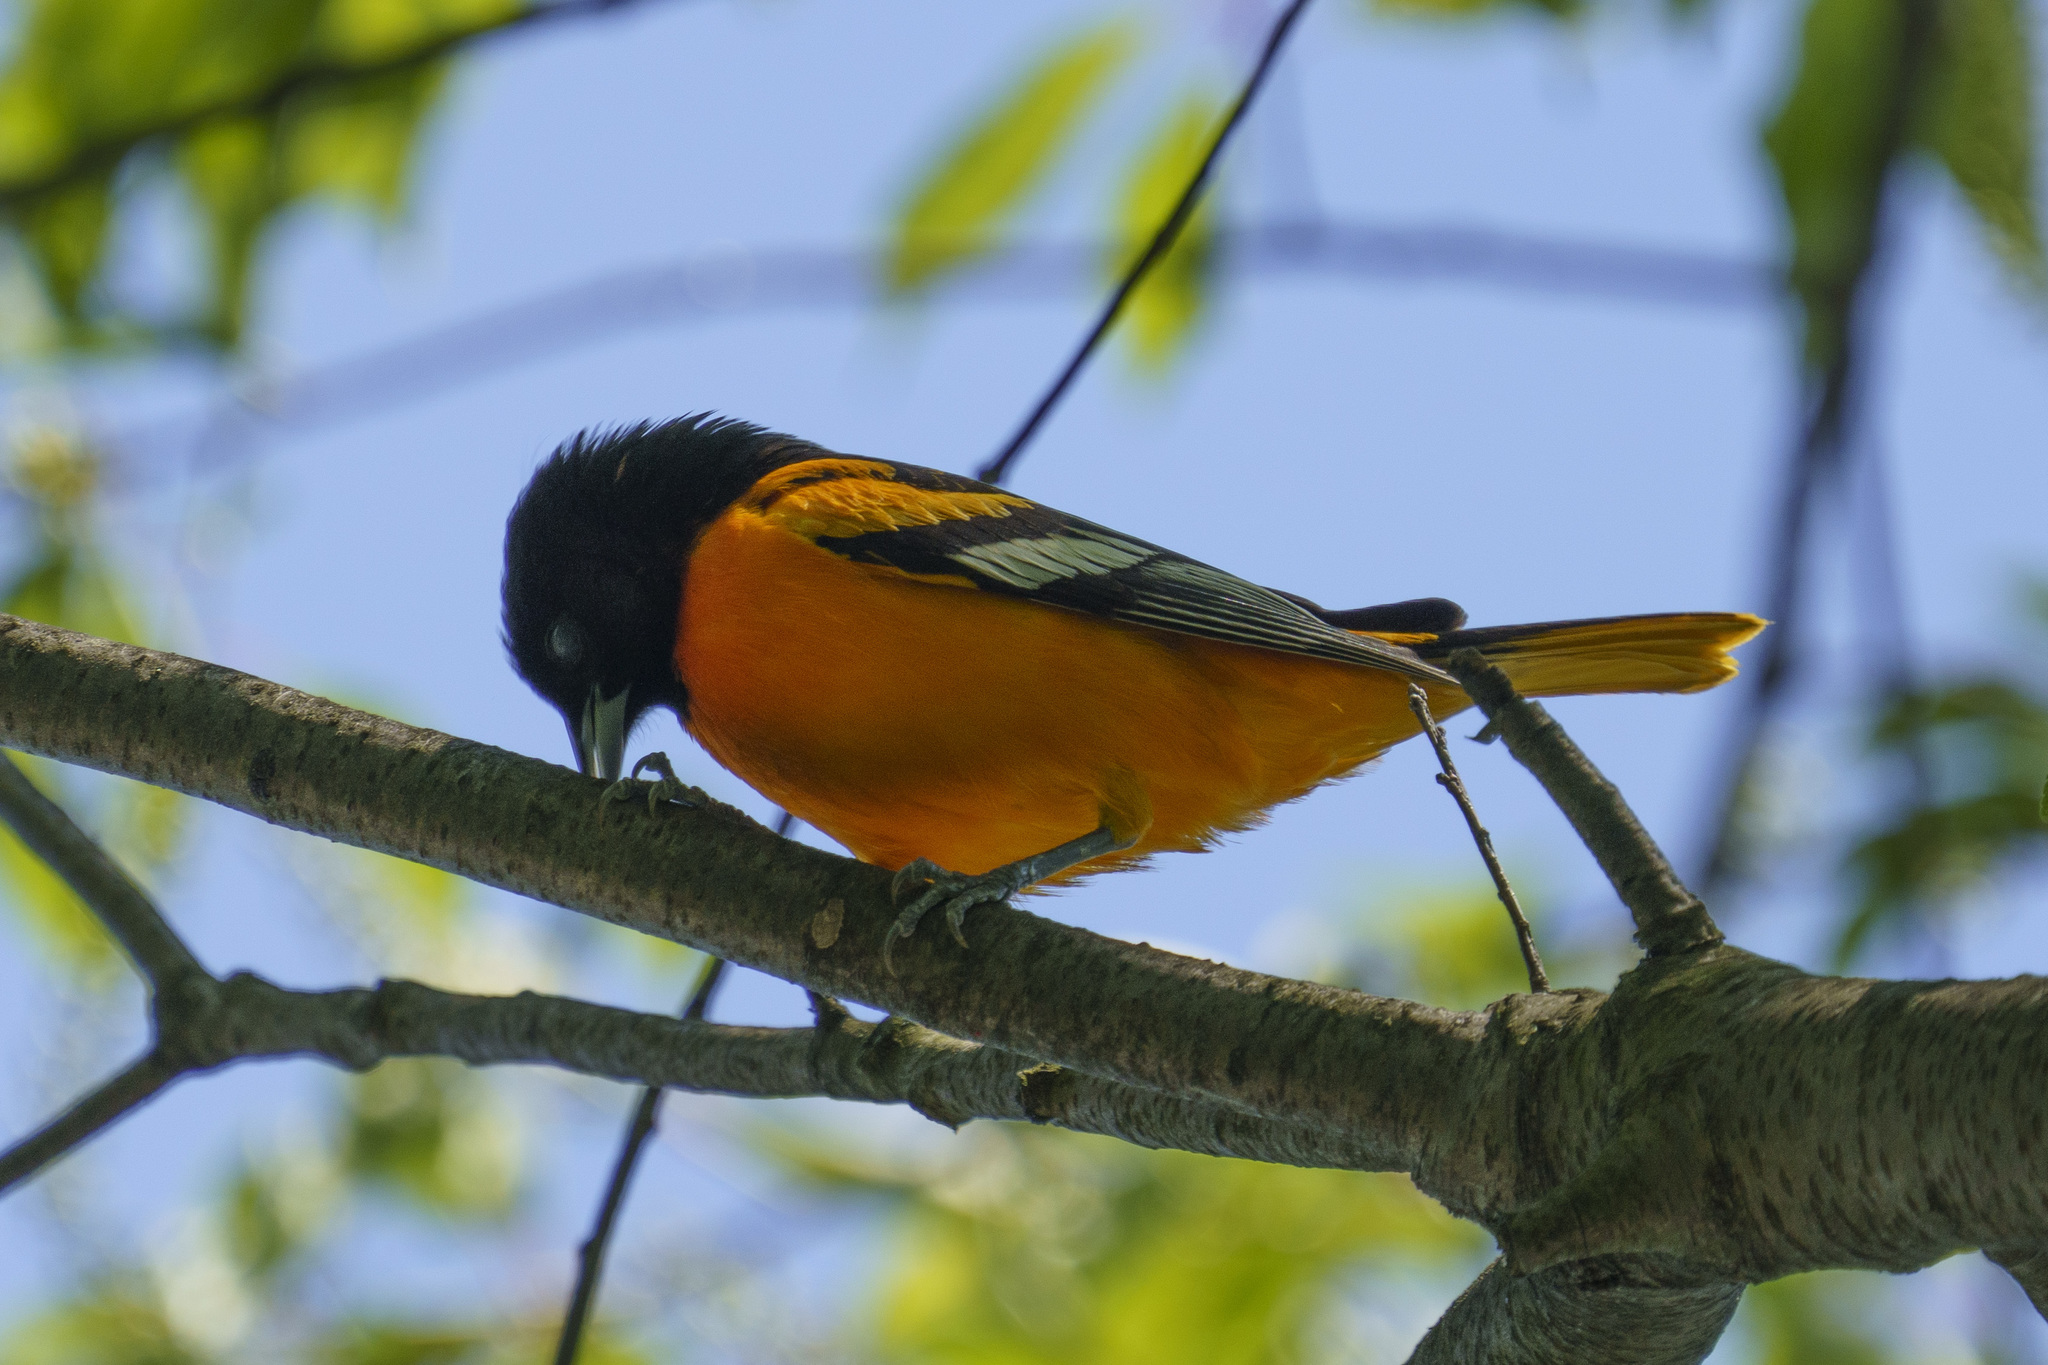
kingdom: Animalia
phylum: Chordata
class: Aves
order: Passeriformes
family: Icteridae
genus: Icterus
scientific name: Icterus galbula
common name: Baltimore oriole
